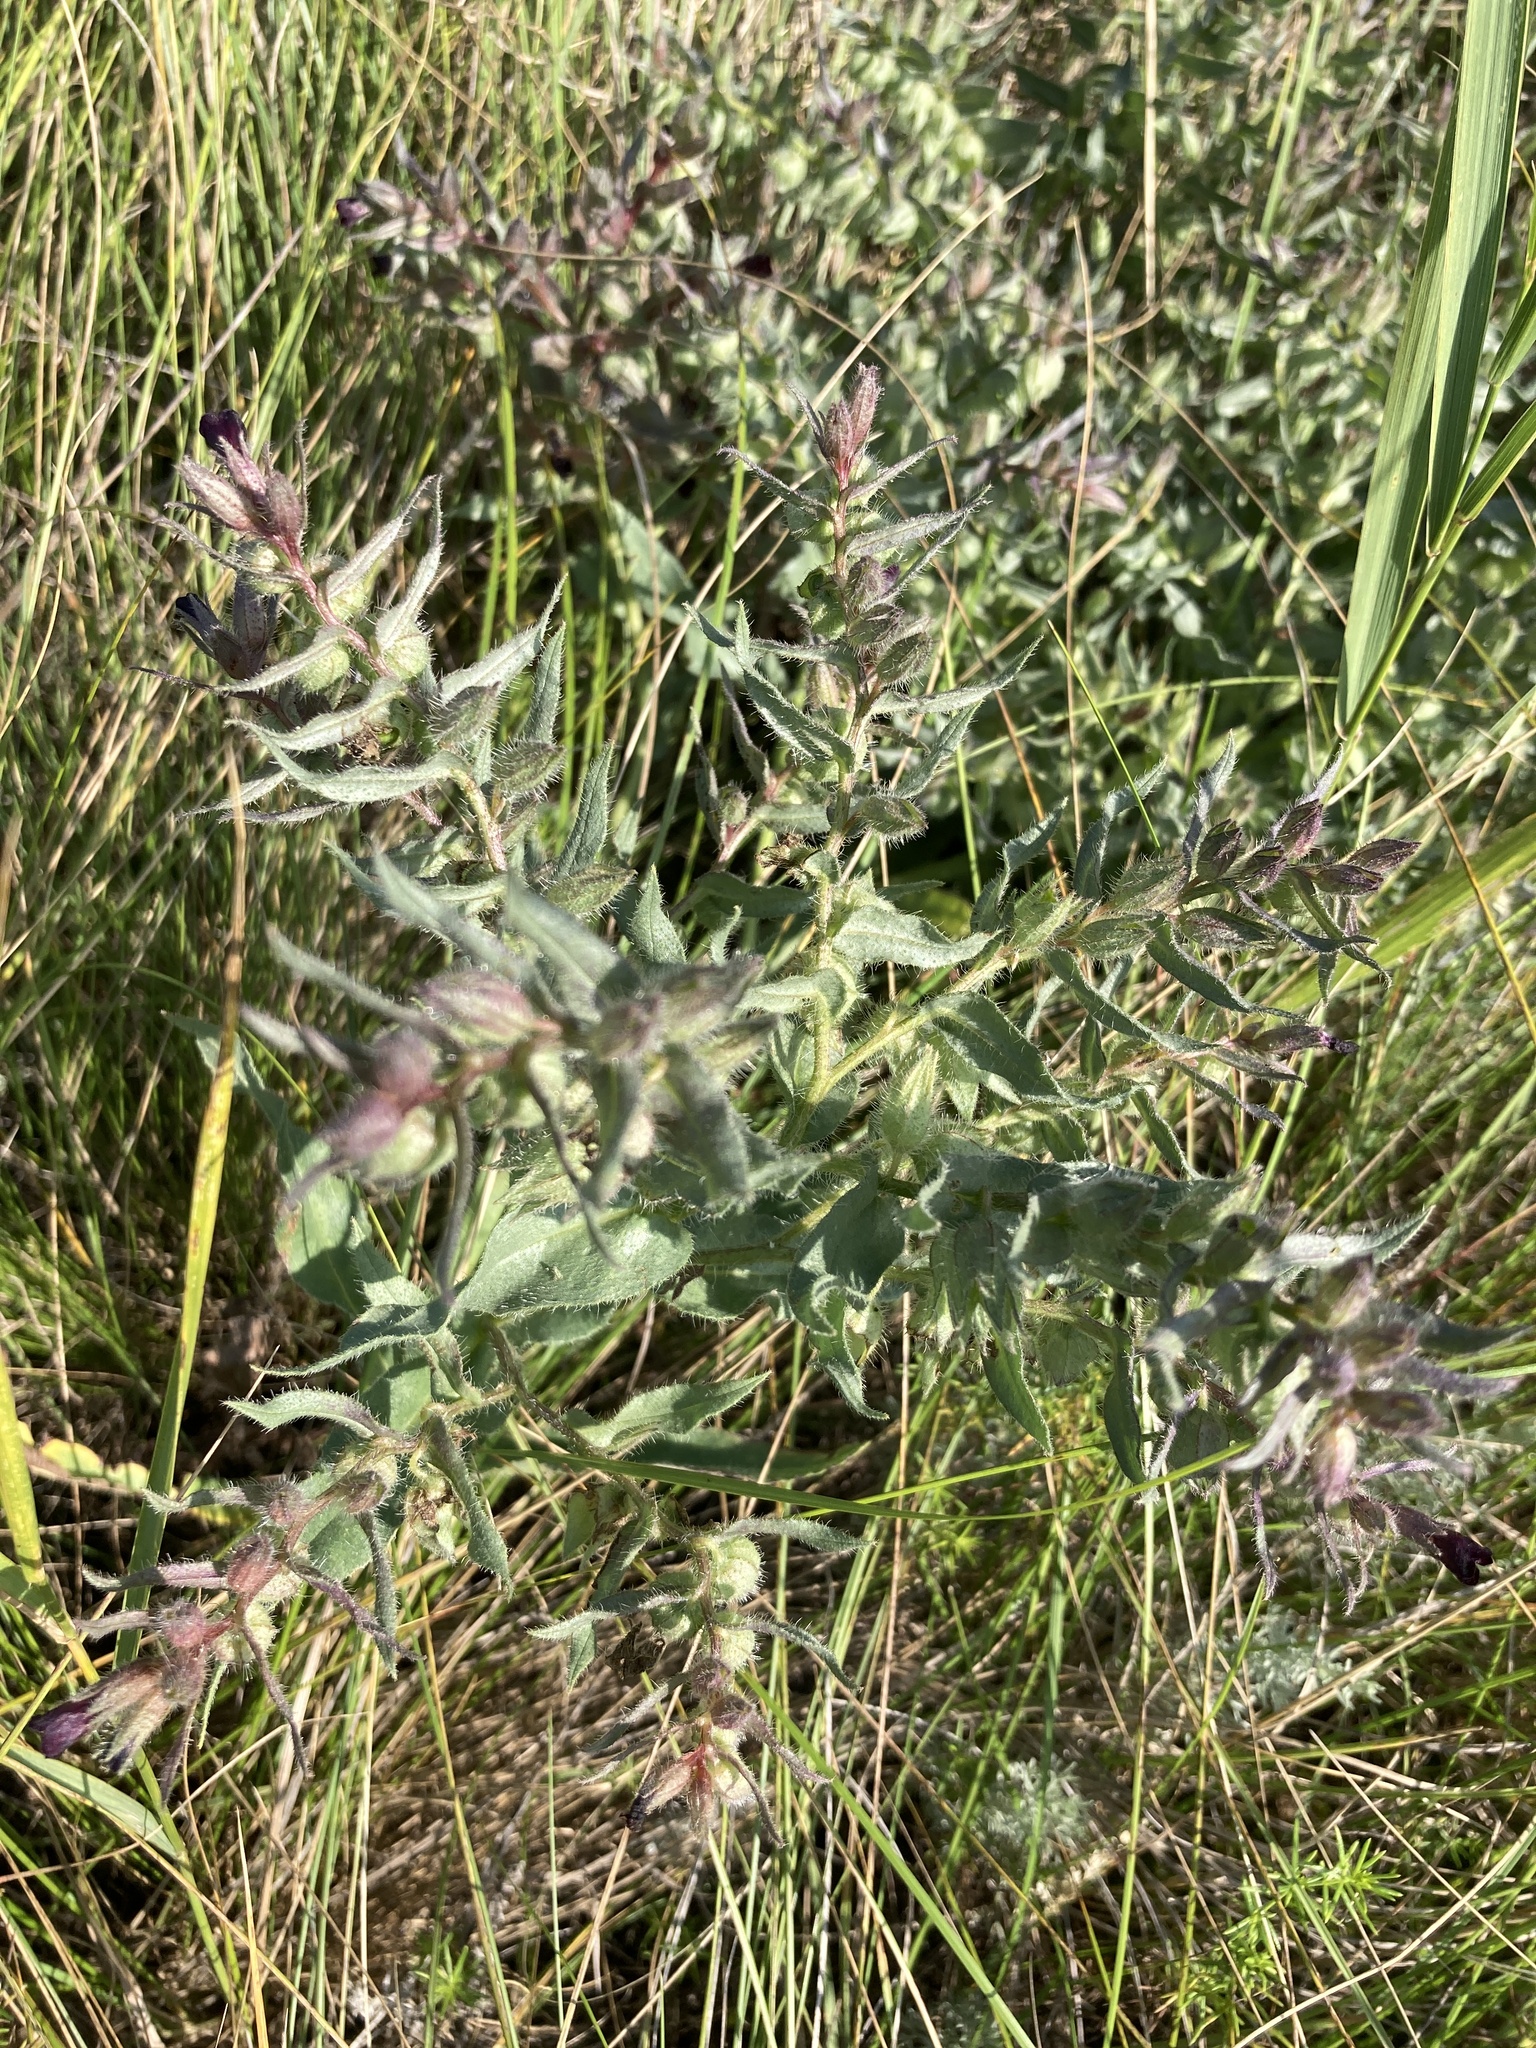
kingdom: Plantae
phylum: Tracheophyta
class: Magnoliopsida
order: Boraginales
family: Boraginaceae
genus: Nonea
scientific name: Nonea pulla
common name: Brown nonea
